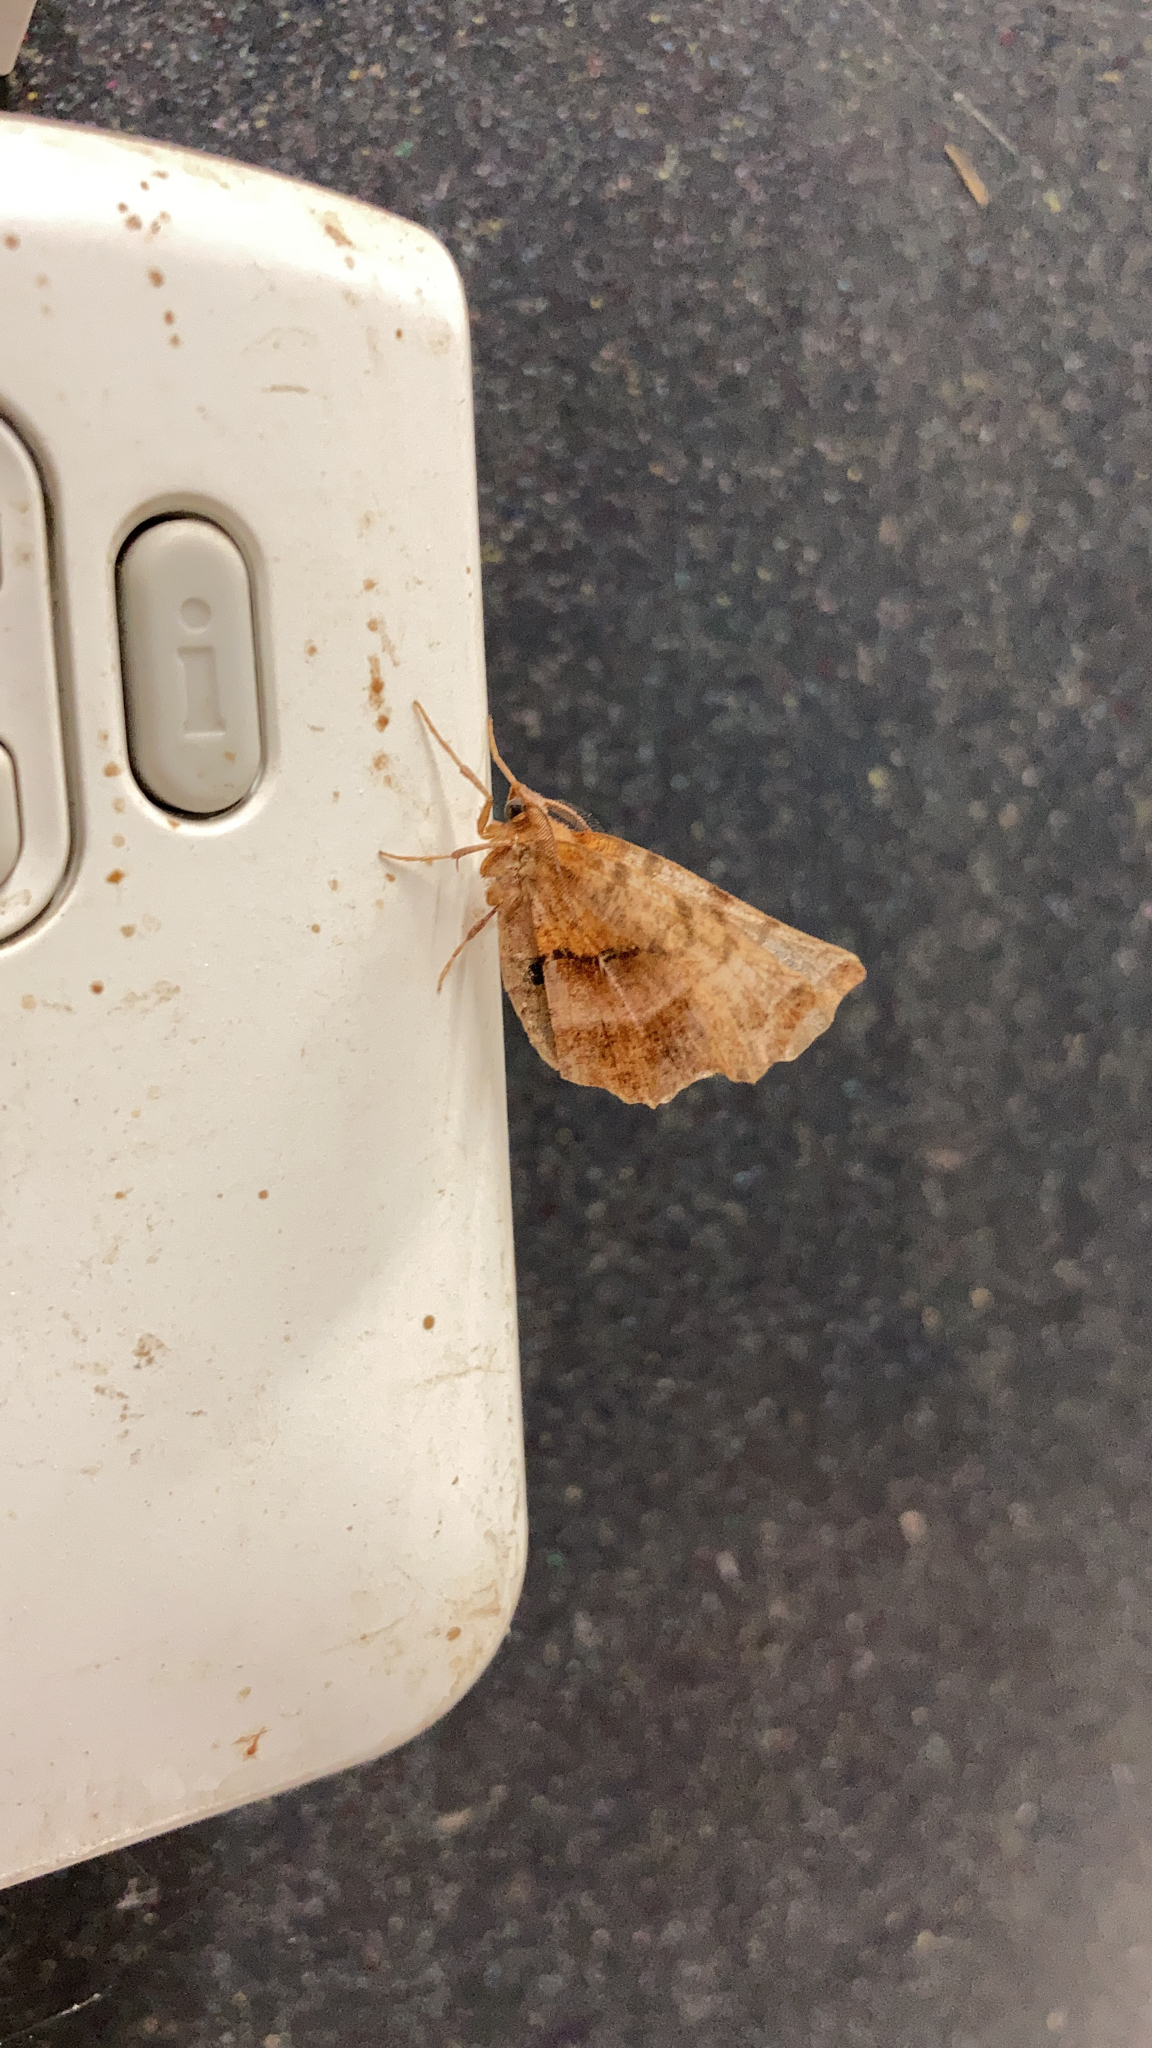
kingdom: Animalia
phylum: Arthropoda
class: Insecta
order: Lepidoptera
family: Geometridae
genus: Selenia
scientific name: Selenia dentaria
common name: Early thorn
